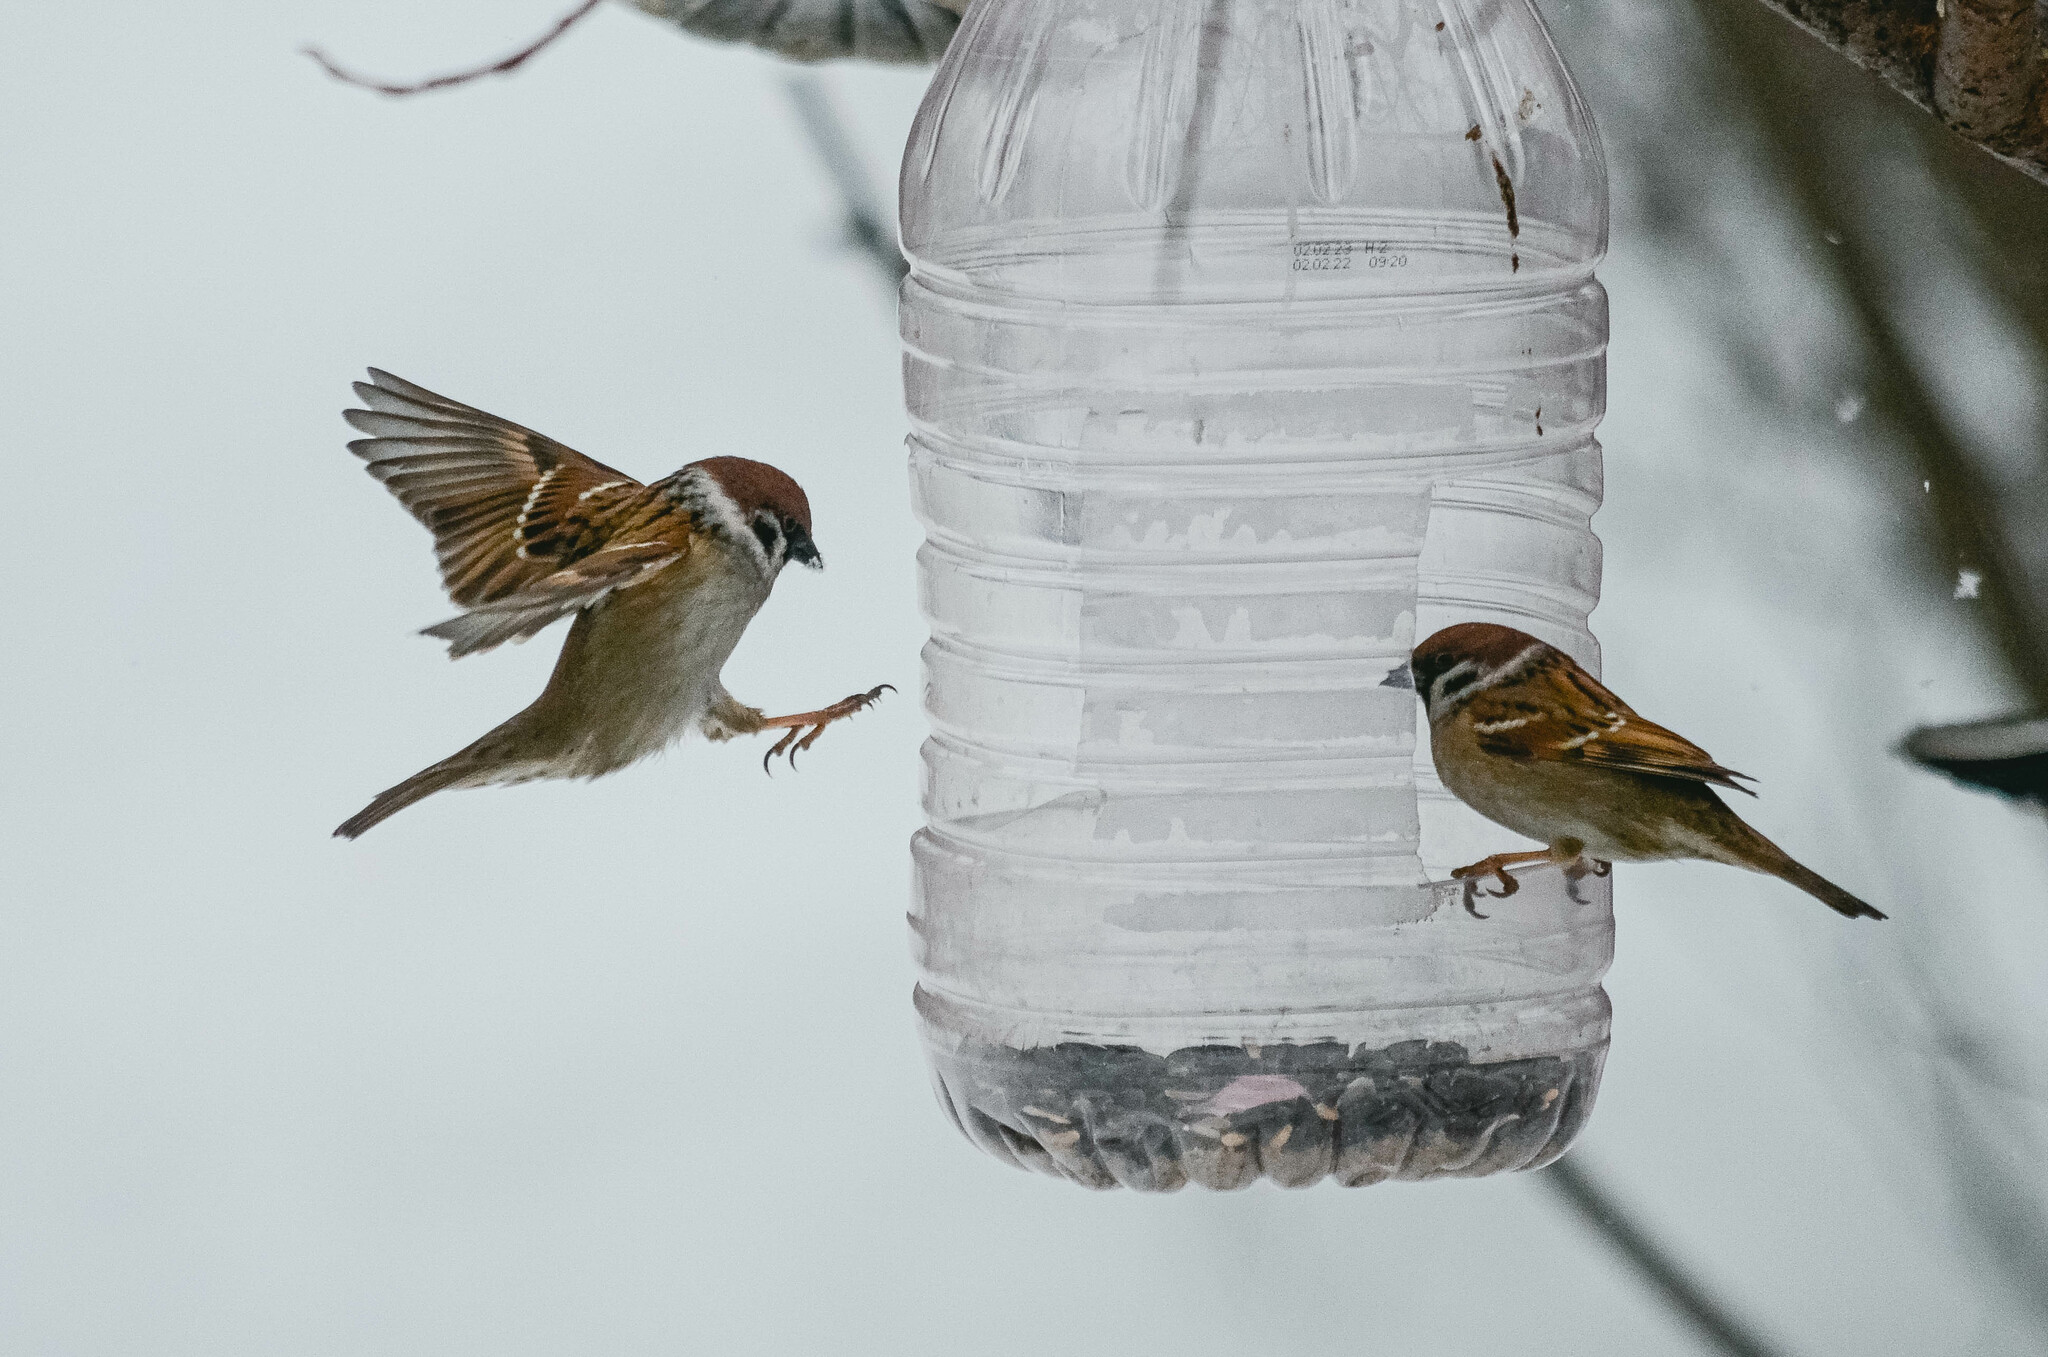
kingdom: Animalia
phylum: Chordata
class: Aves
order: Passeriformes
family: Passeridae
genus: Passer
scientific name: Passer montanus
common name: Eurasian tree sparrow
